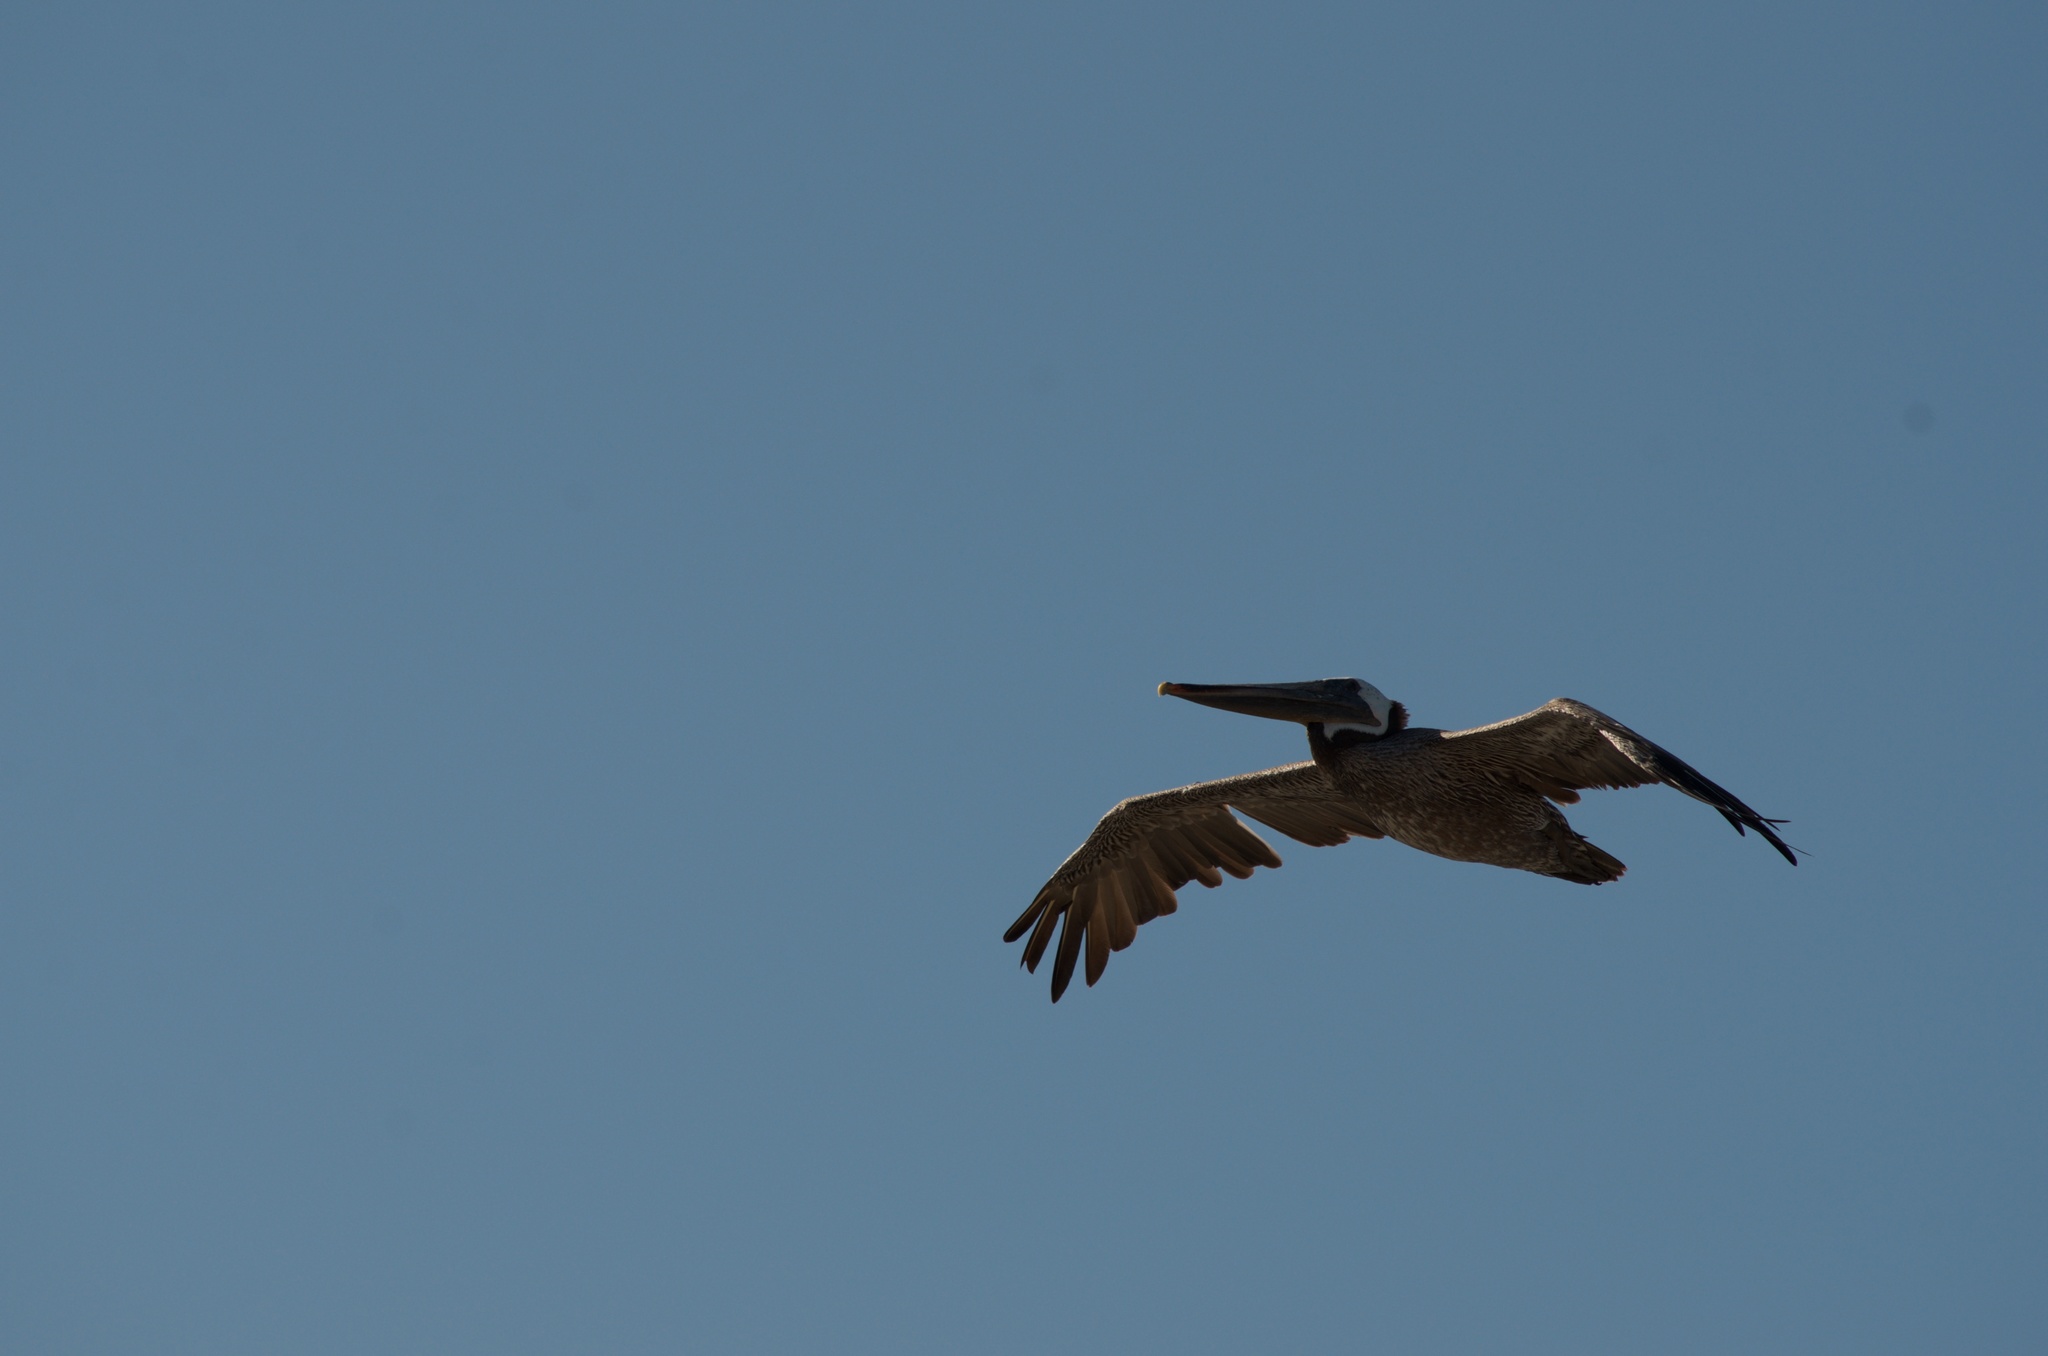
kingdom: Animalia
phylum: Chordata
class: Aves
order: Pelecaniformes
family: Pelecanidae
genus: Pelecanus
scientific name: Pelecanus occidentalis
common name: Brown pelican
